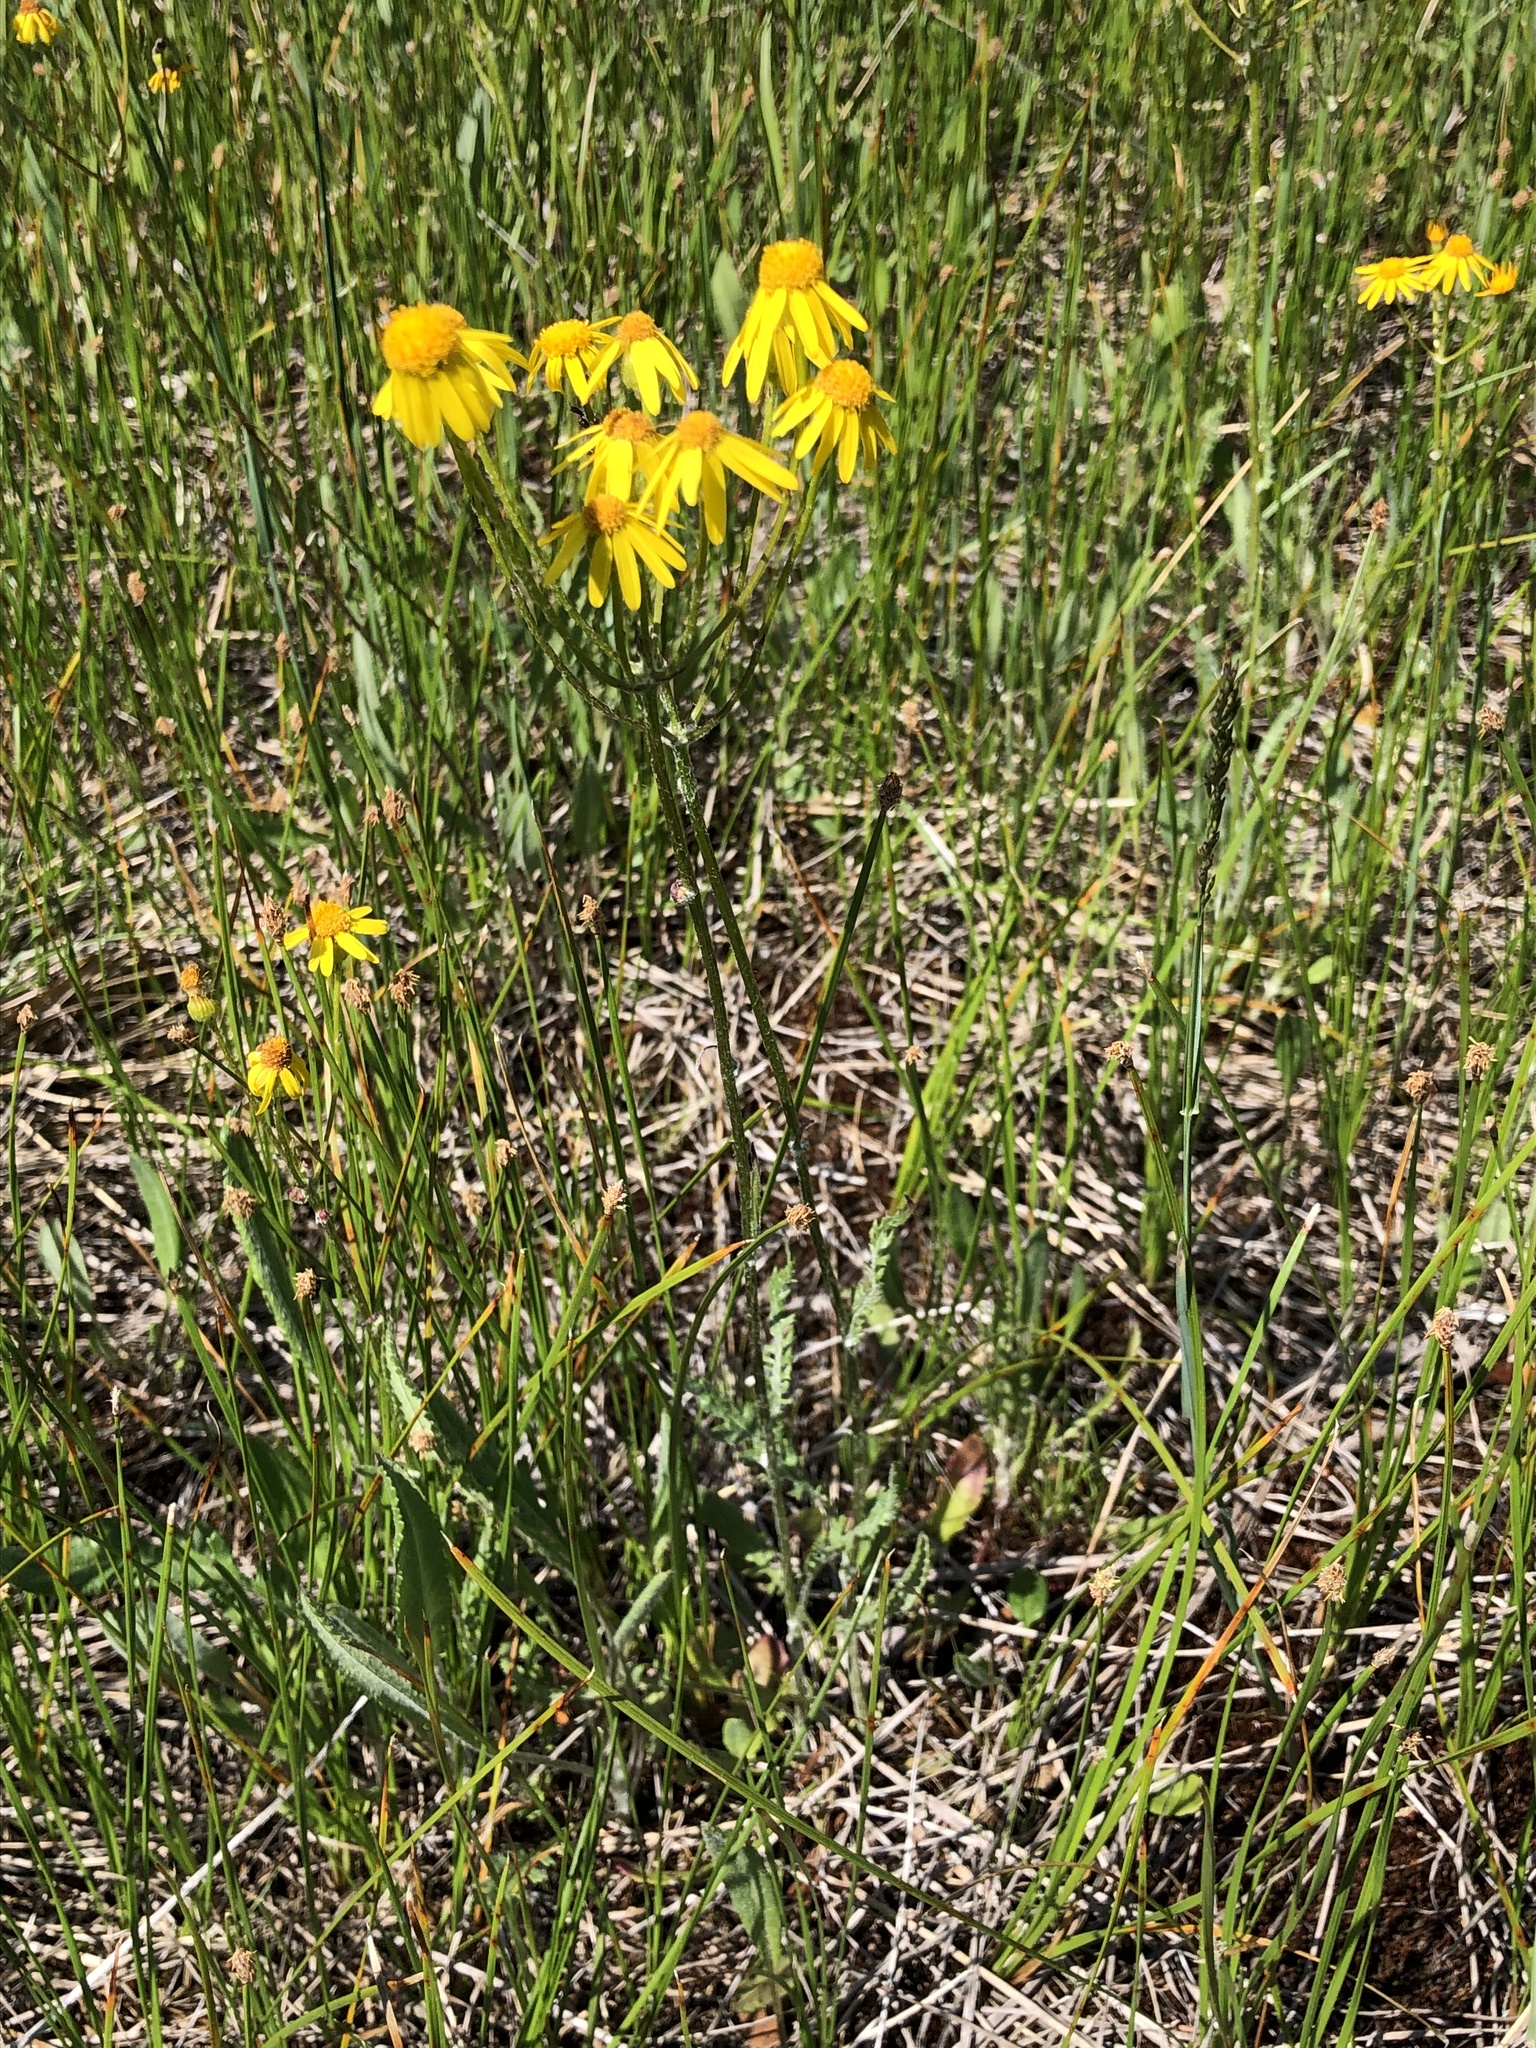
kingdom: Plantae
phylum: Tracheophyta
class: Magnoliopsida
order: Asterales
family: Asteraceae
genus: Packera
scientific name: Packera paupercula
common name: Balsam groundsel
